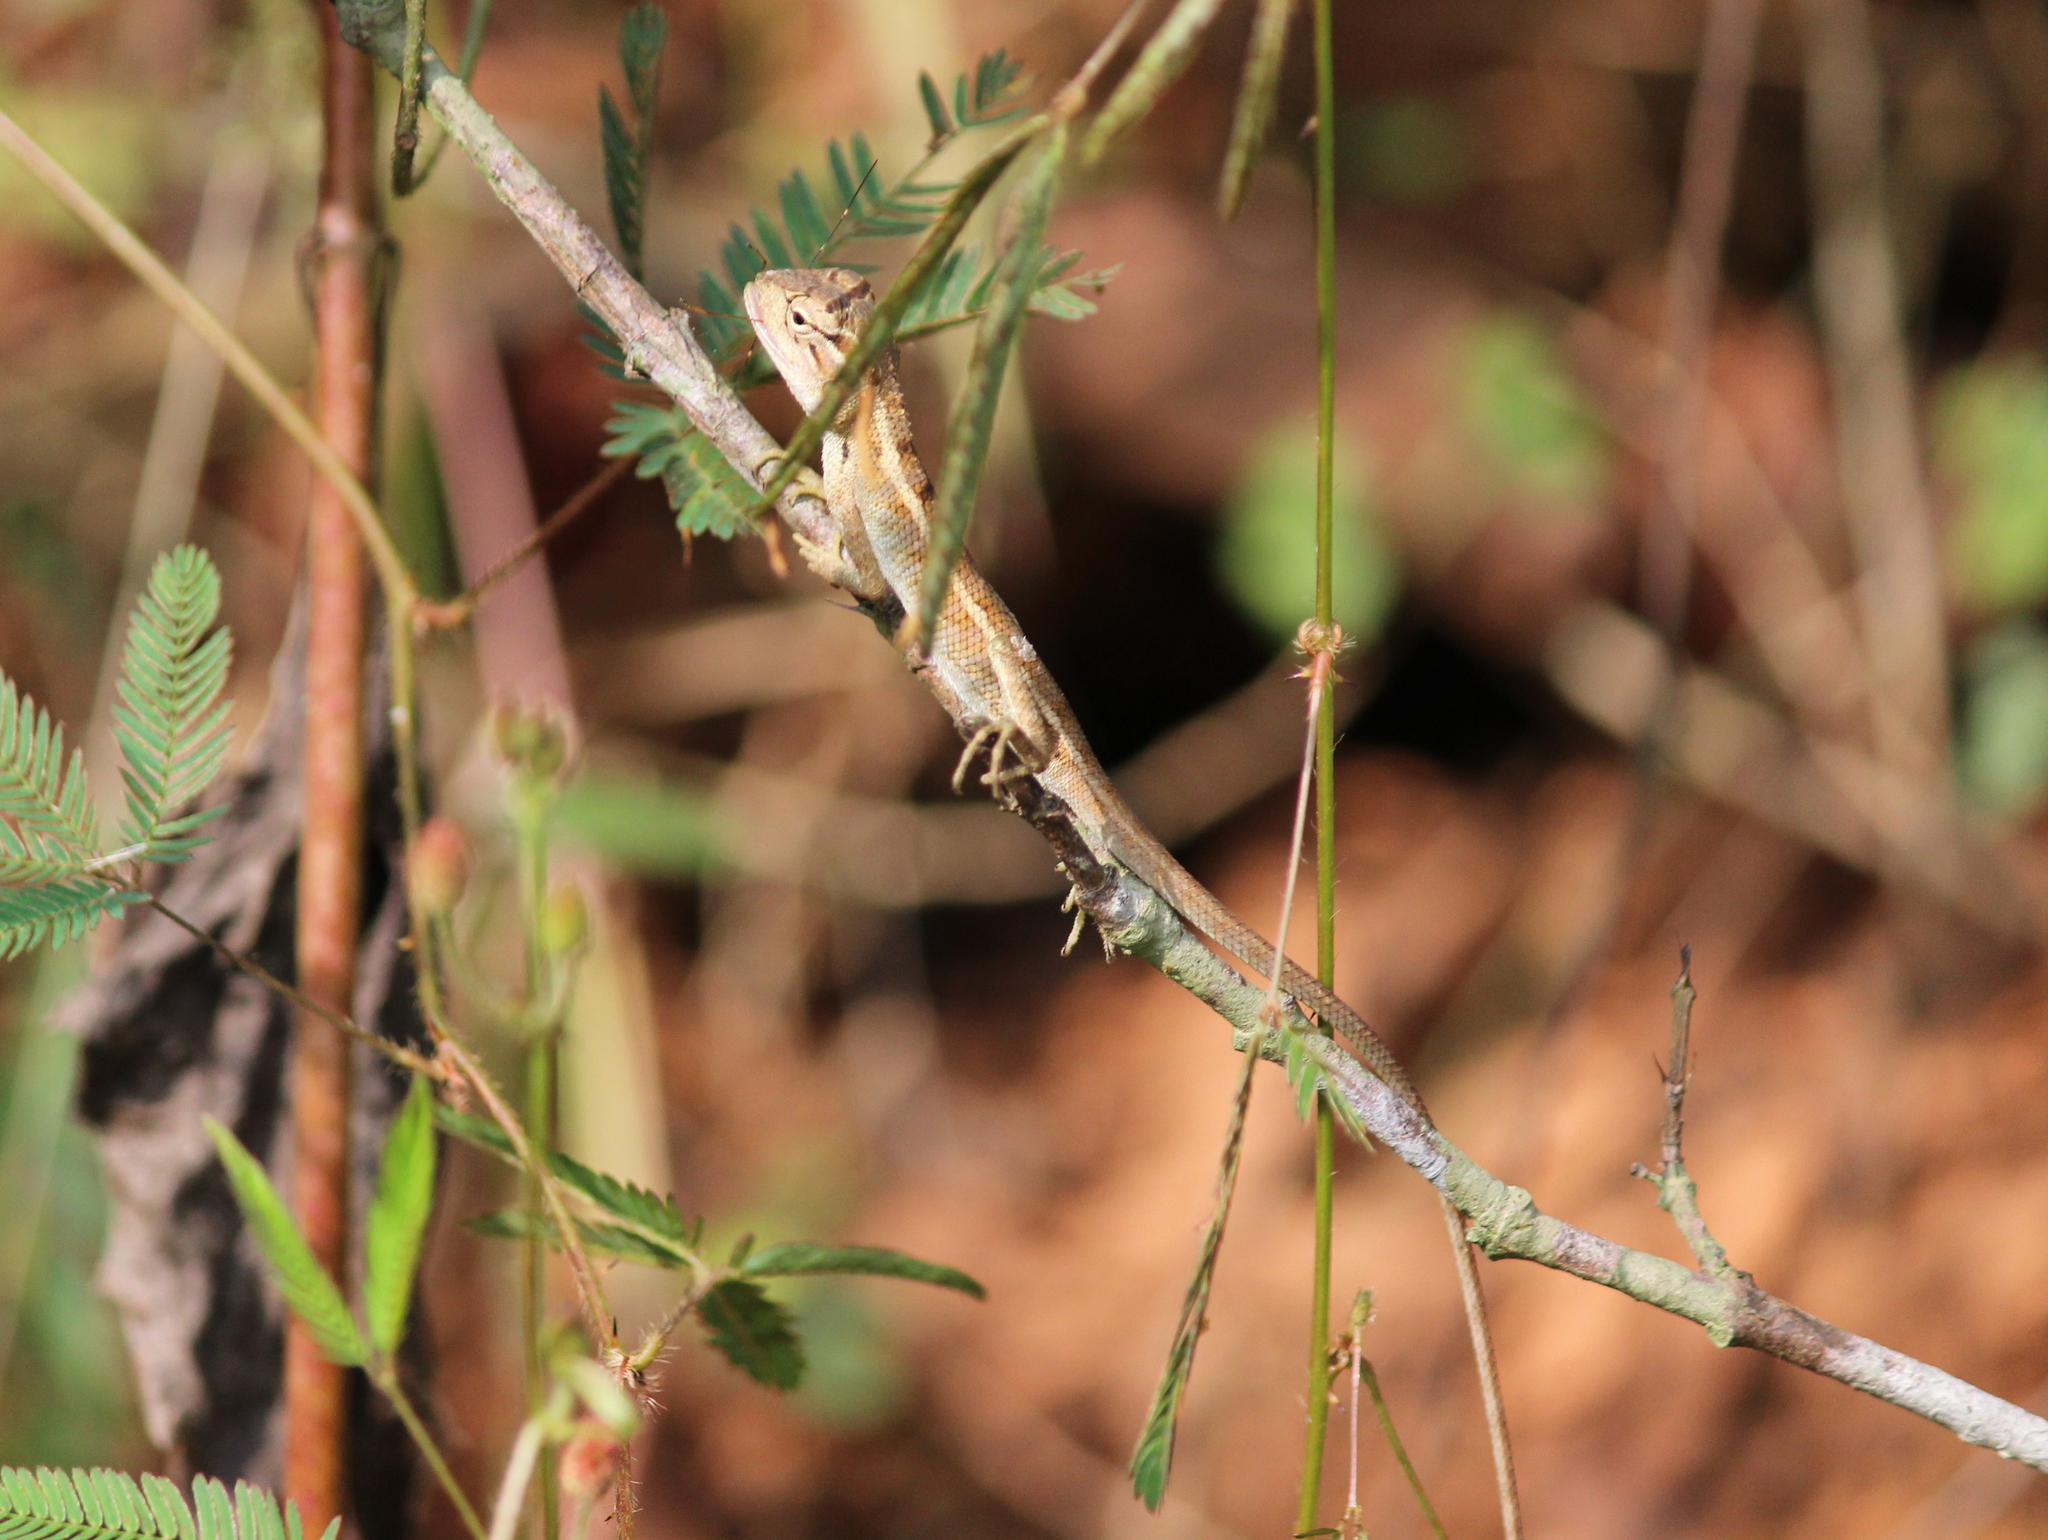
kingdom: Animalia
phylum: Chordata
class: Squamata
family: Agamidae
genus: Calotes
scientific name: Calotes versicolor
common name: Oriental garden lizard
